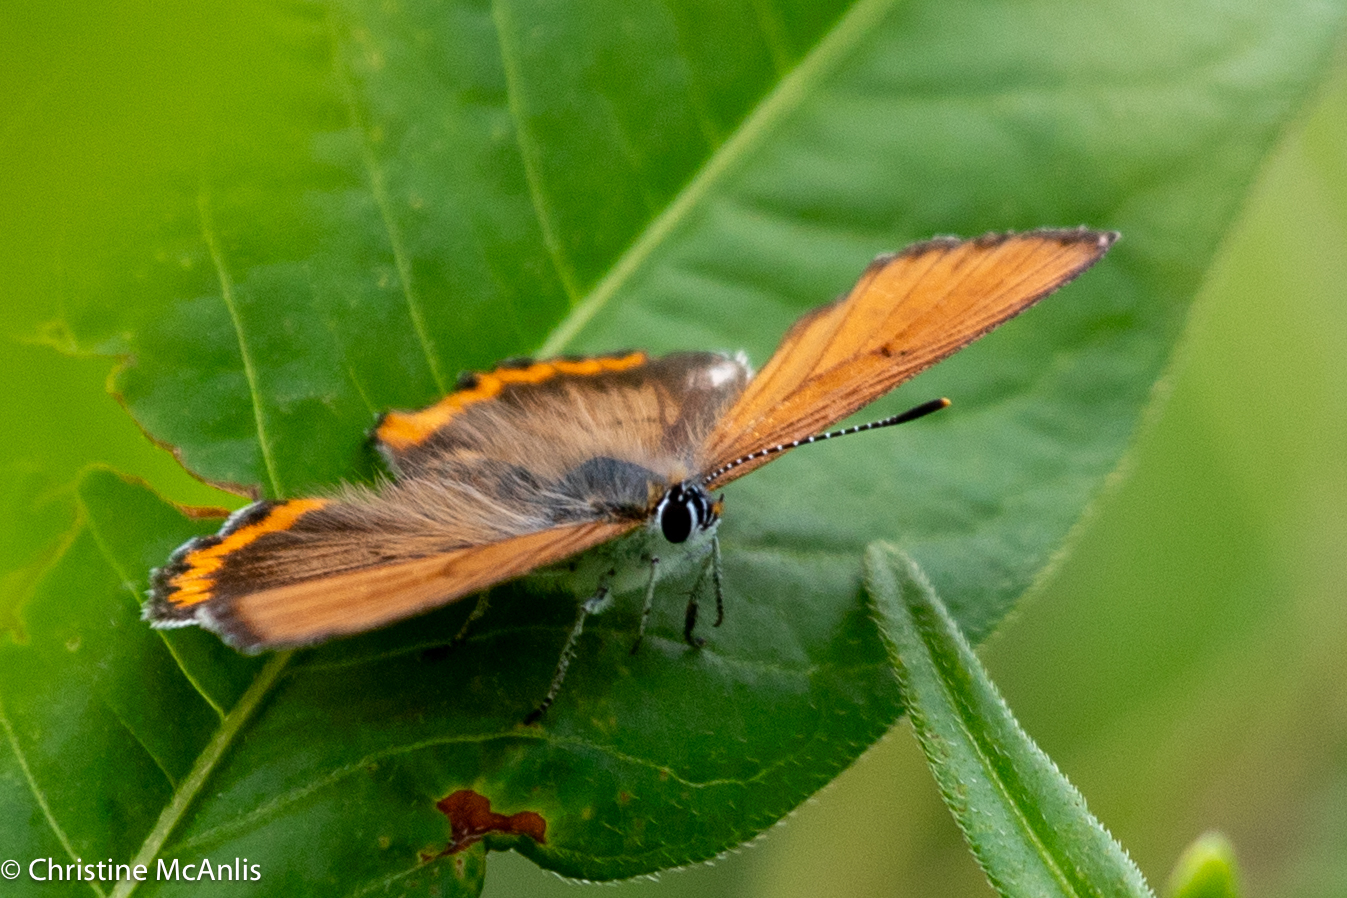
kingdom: Animalia
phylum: Arthropoda
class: Insecta
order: Lepidoptera
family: Lycaenidae
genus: Tharsalea
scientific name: Tharsalea hyllus
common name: Bronze copper
